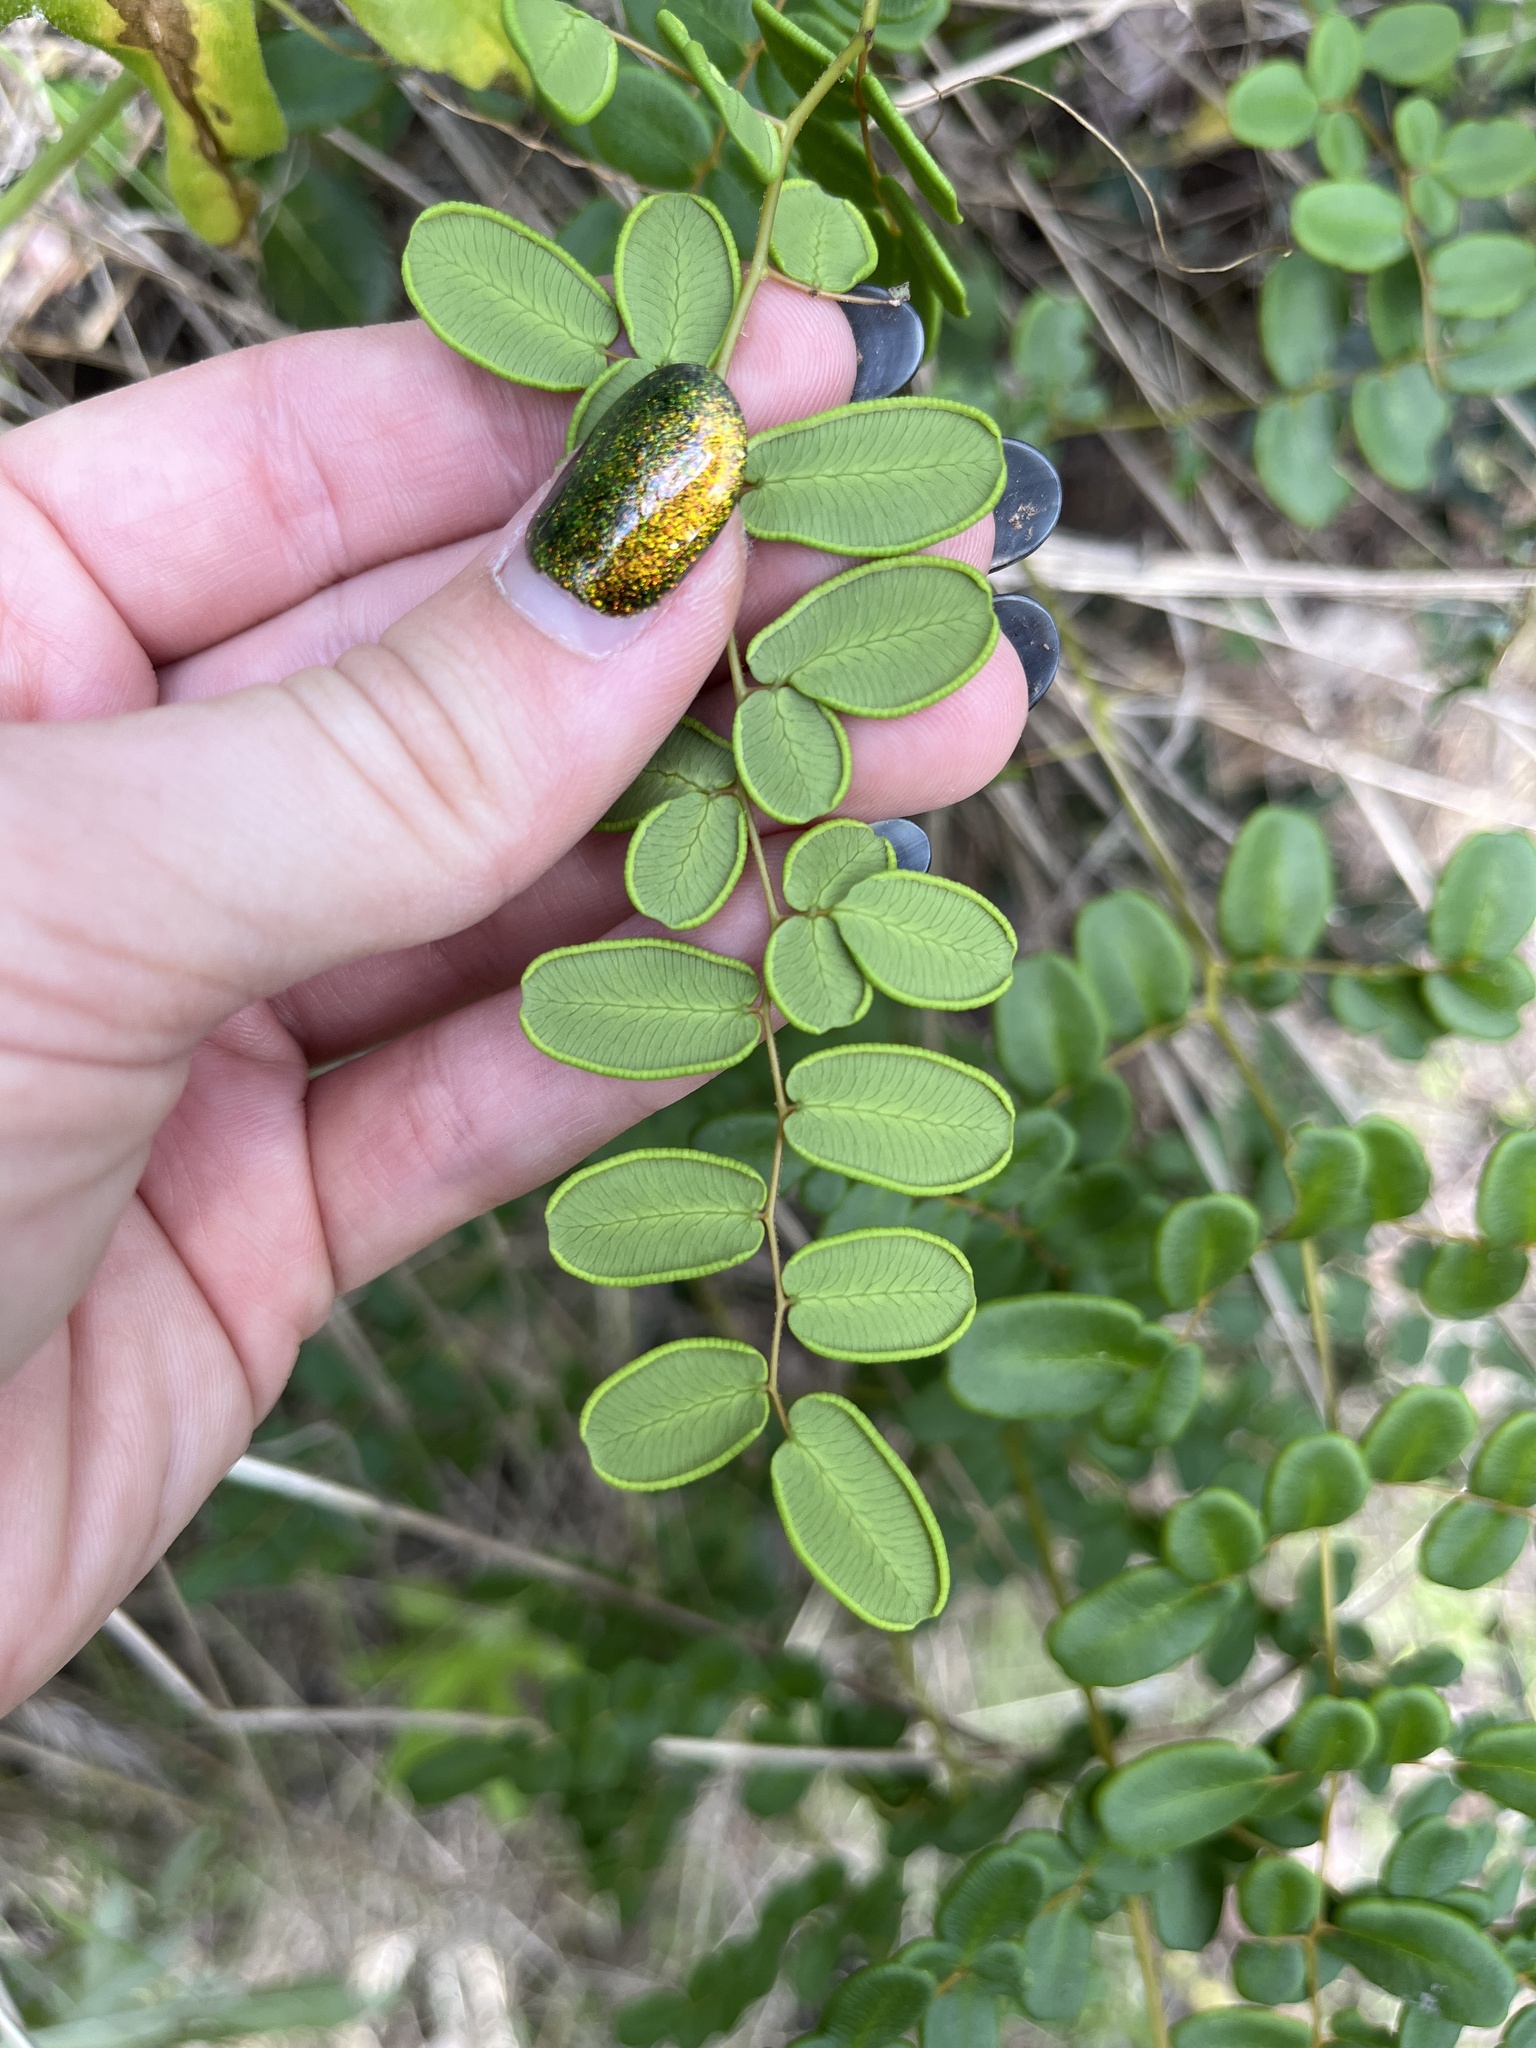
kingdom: Plantae
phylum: Tracheophyta
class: Polypodiopsida
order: Polypodiales
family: Pteridaceae
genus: Pellaea
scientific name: Pellaea andromedifolia
